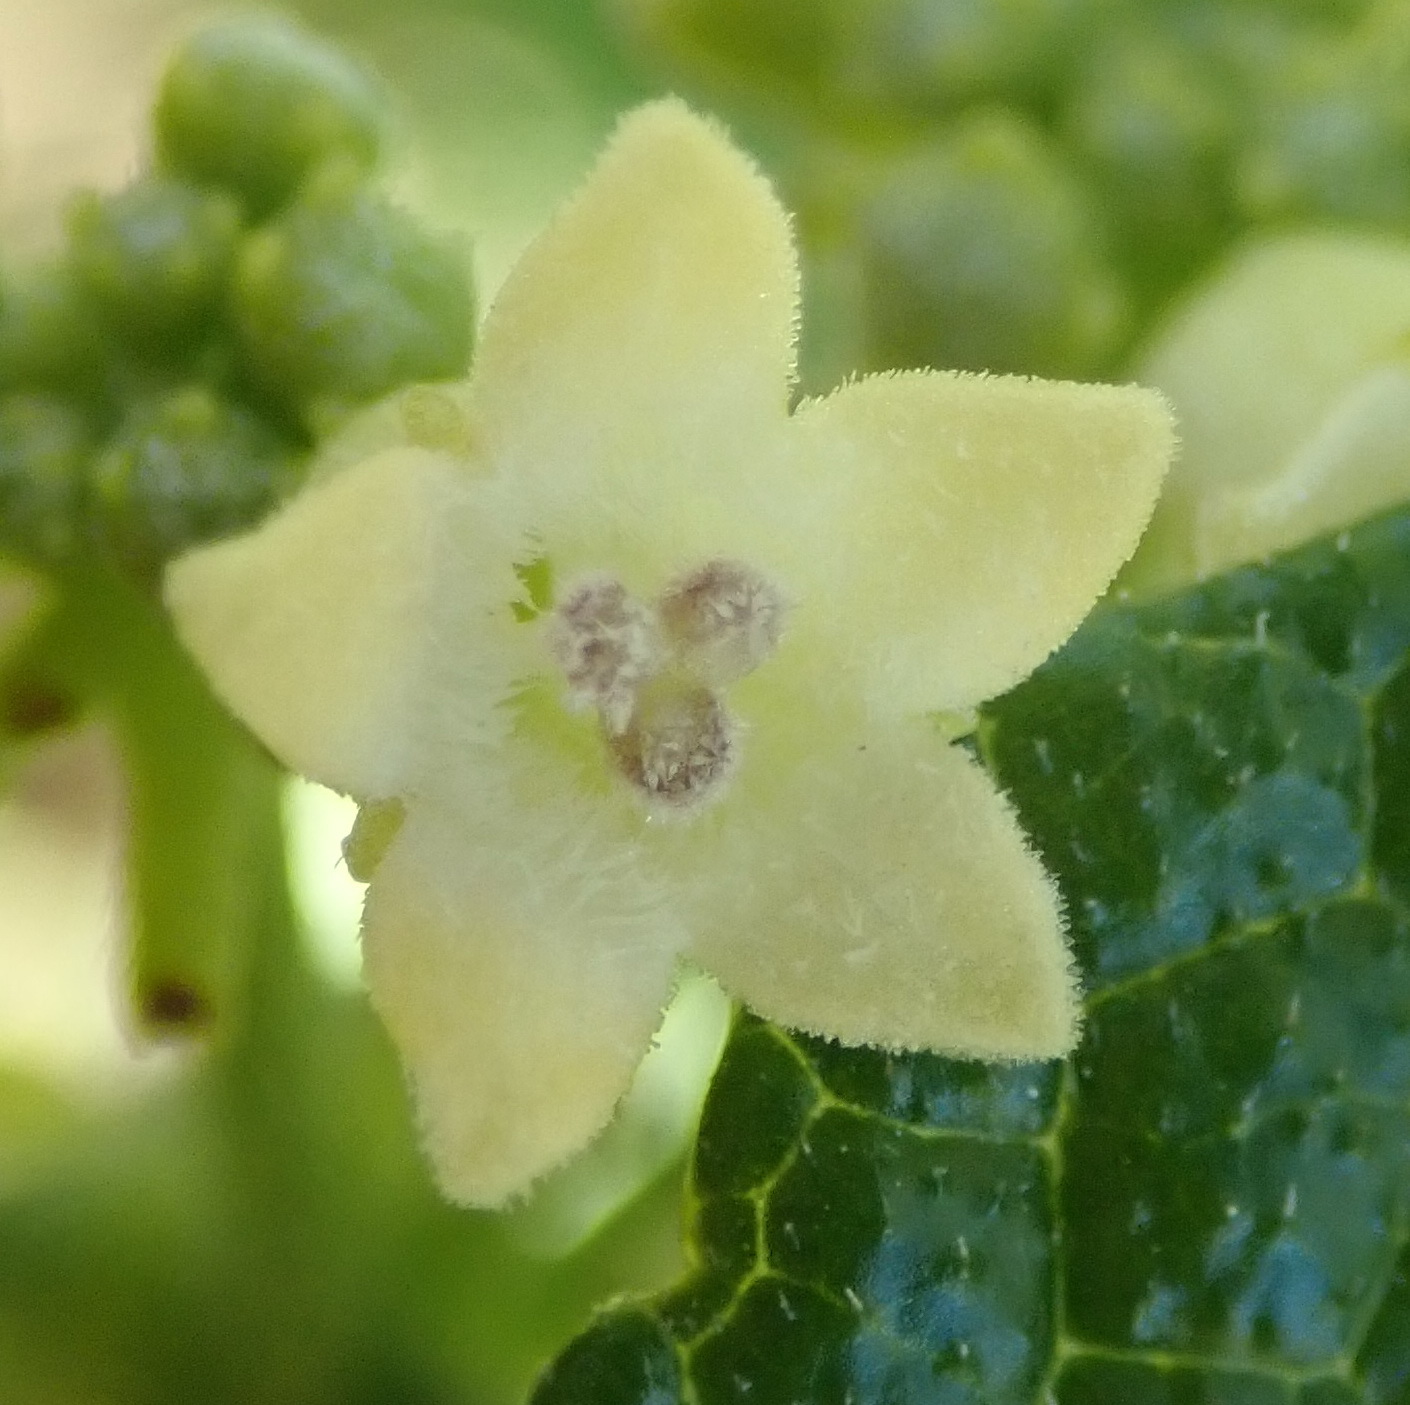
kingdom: Plantae
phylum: Tracheophyta
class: Magnoliopsida
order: Cucurbitales
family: Cucurbitaceae
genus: Zehneria
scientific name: Zehneria scabra
